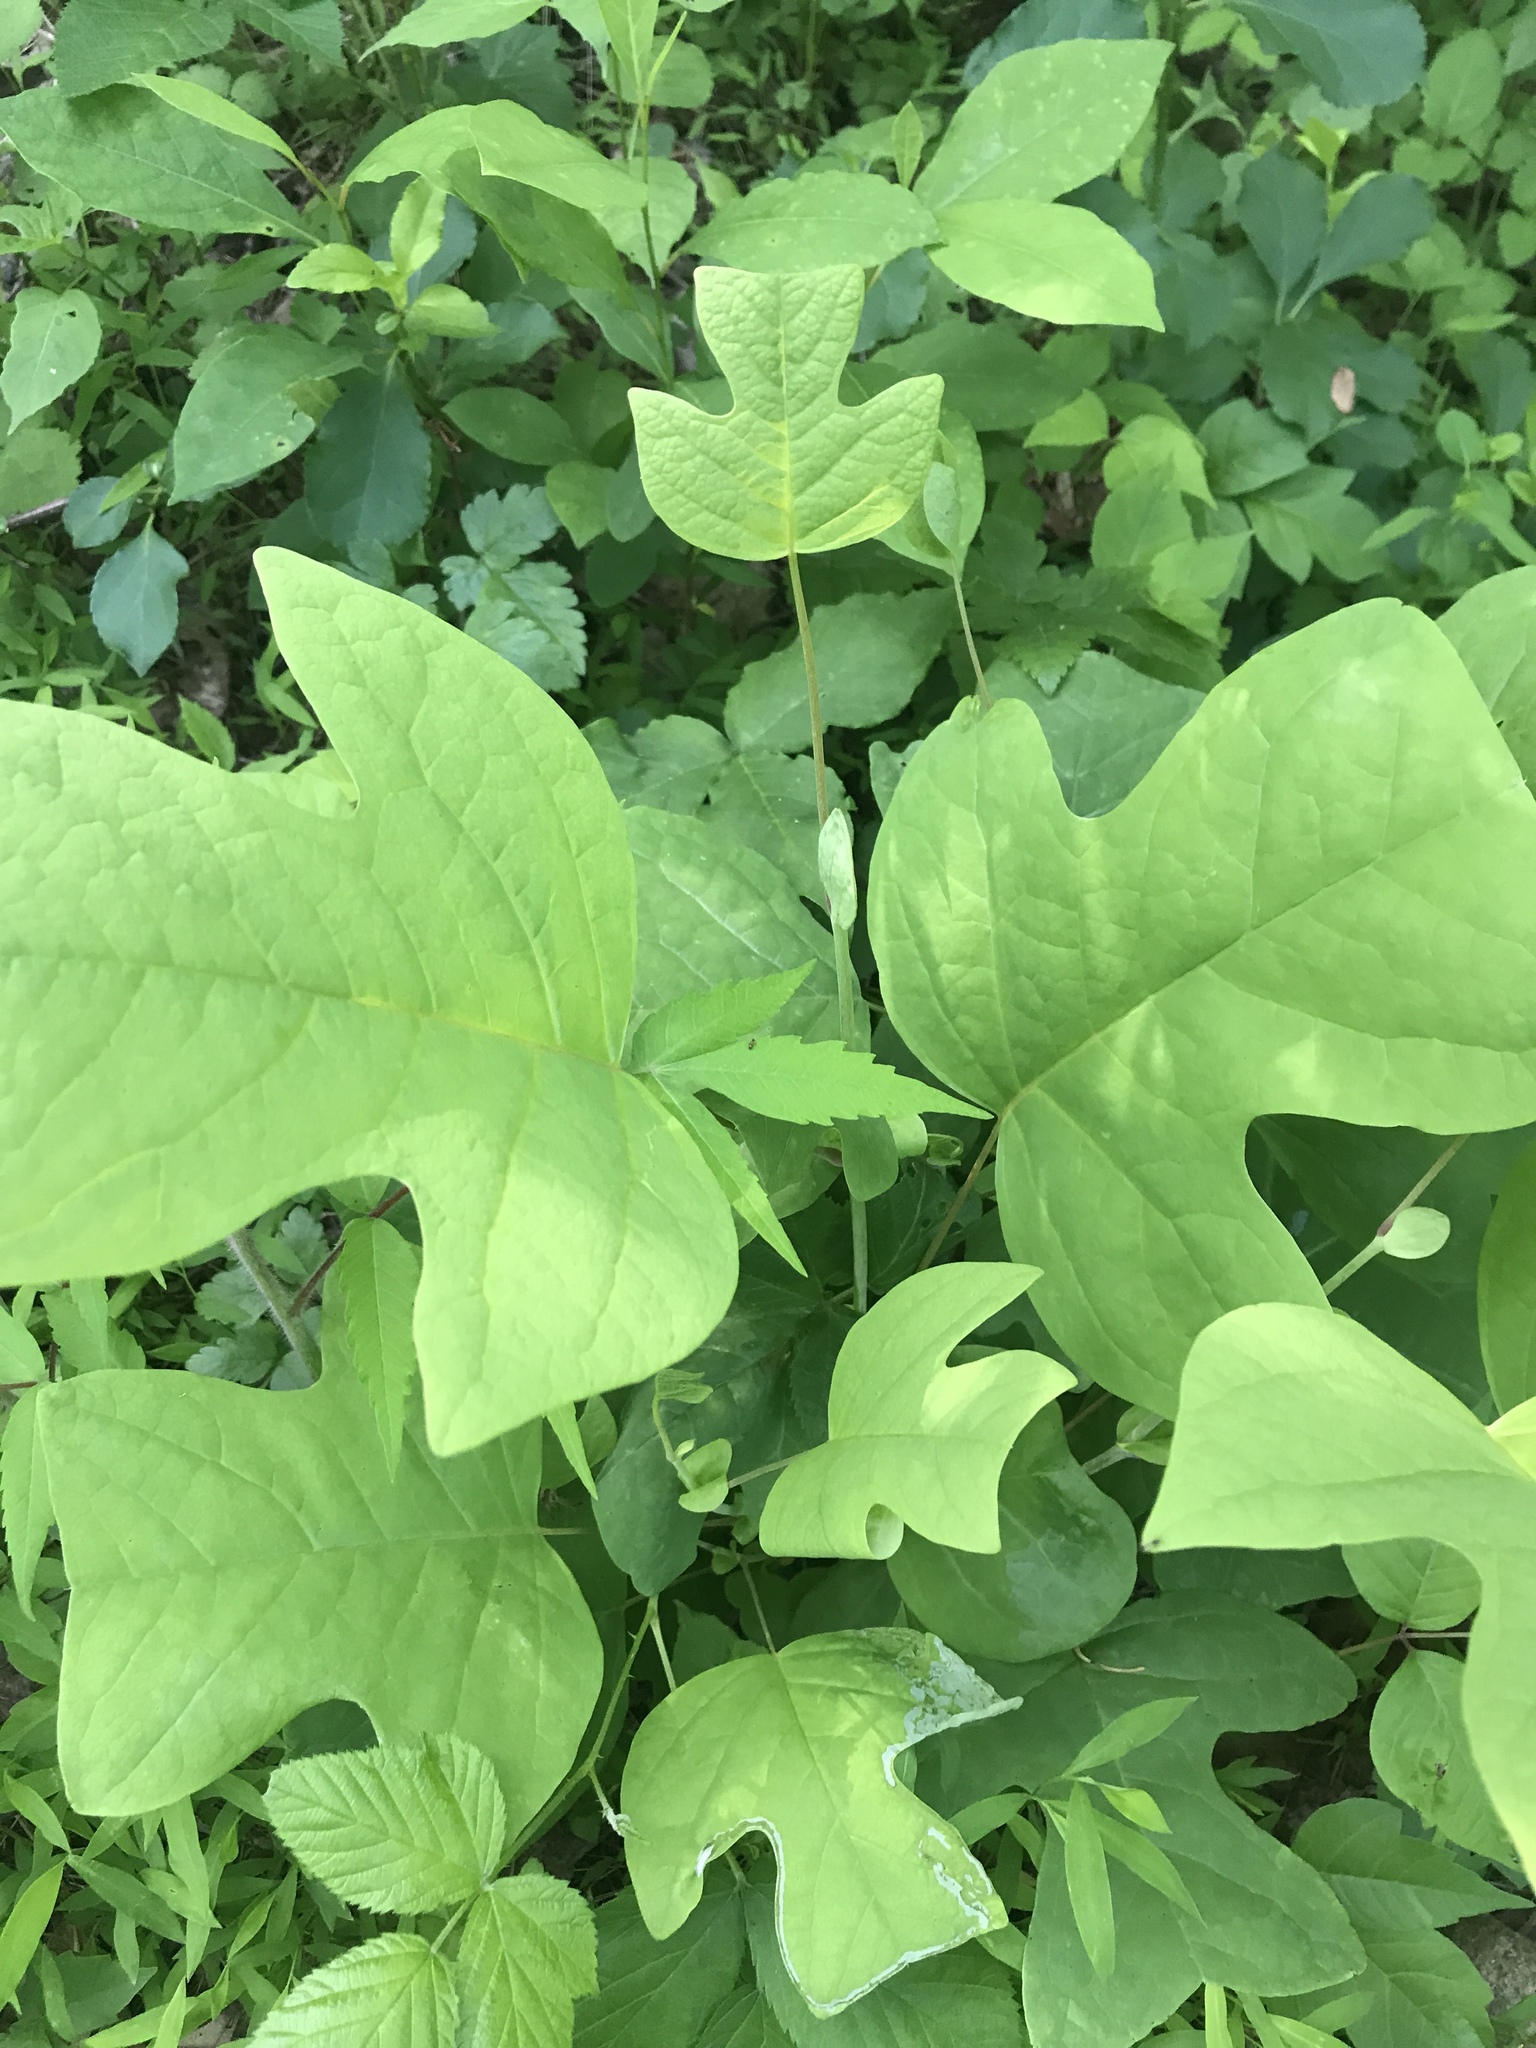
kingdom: Plantae
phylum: Tracheophyta
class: Magnoliopsida
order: Magnoliales
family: Magnoliaceae
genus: Liriodendron
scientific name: Liriodendron tulipifera
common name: Tulip tree
